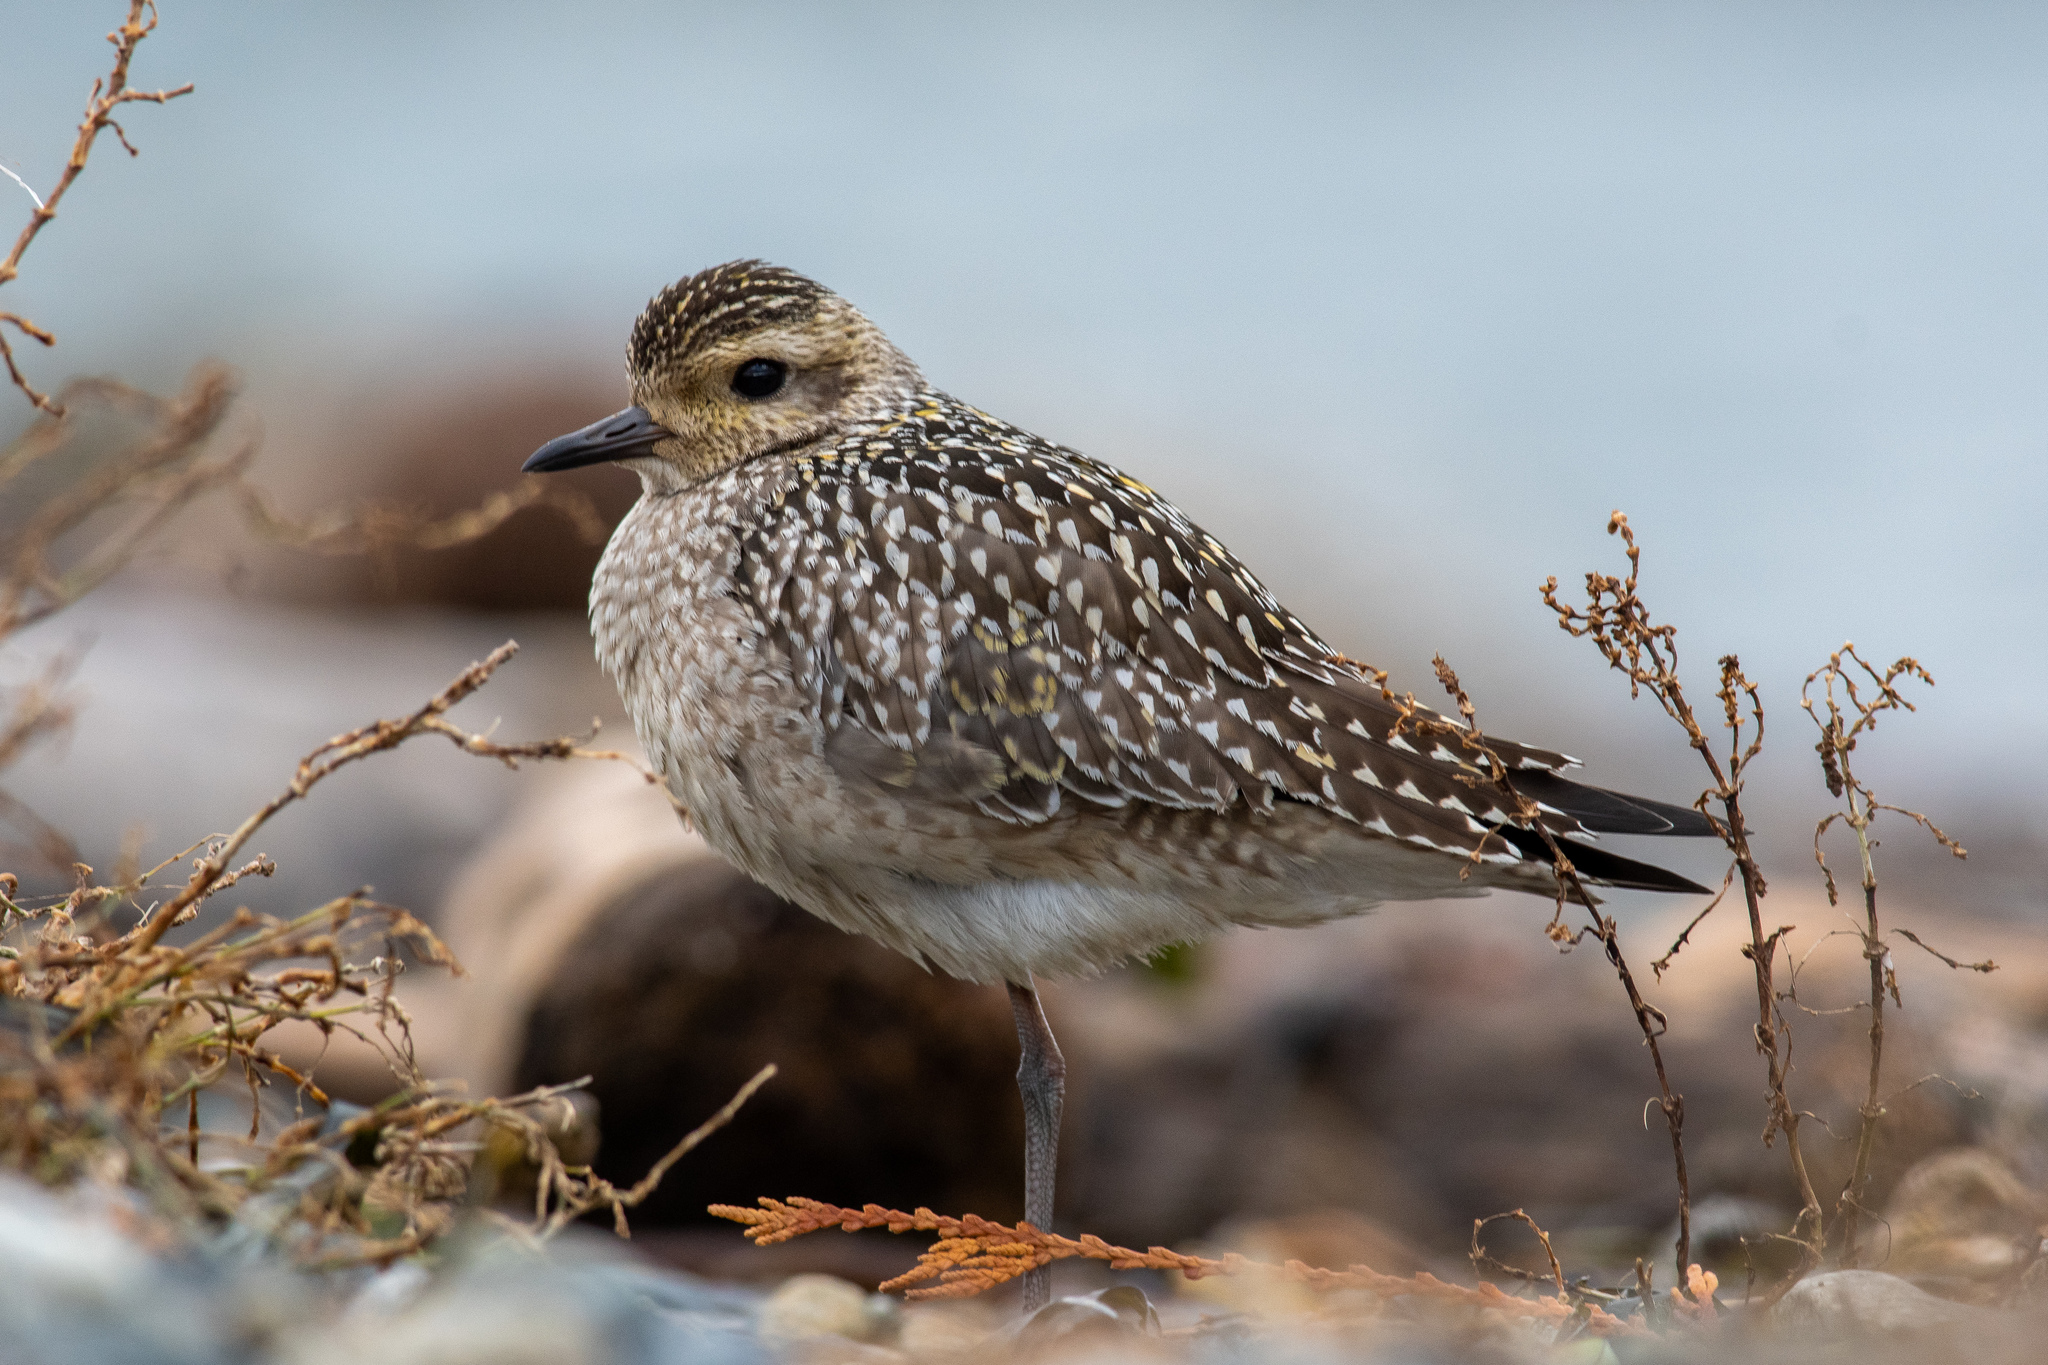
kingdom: Animalia
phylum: Chordata
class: Aves
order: Charadriiformes
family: Charadriidae
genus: Pluvialis
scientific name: Pluvialis fulva
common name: Pacific golden plover
